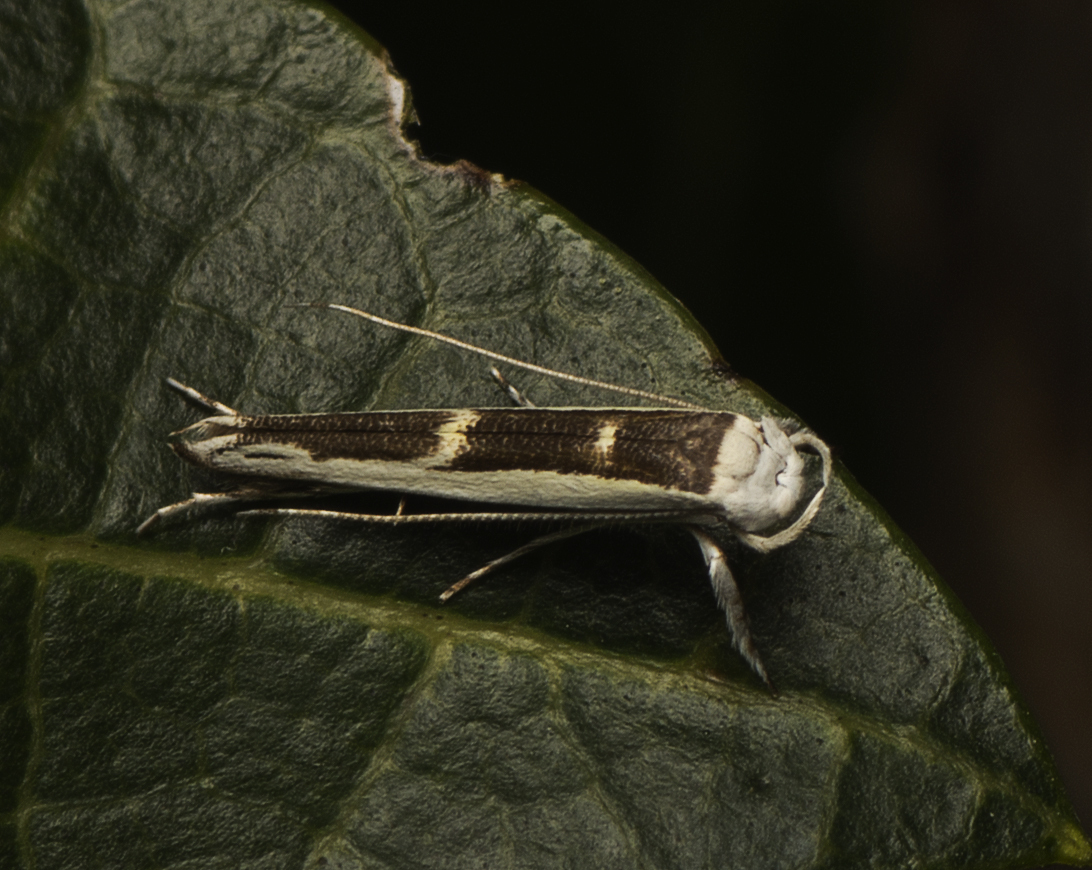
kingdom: Animalia
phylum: Arthropoda
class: Insecta
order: Lepidoptera
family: Roeslerstammiidae
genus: Vanicela
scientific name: Vanicela xenadelpha
